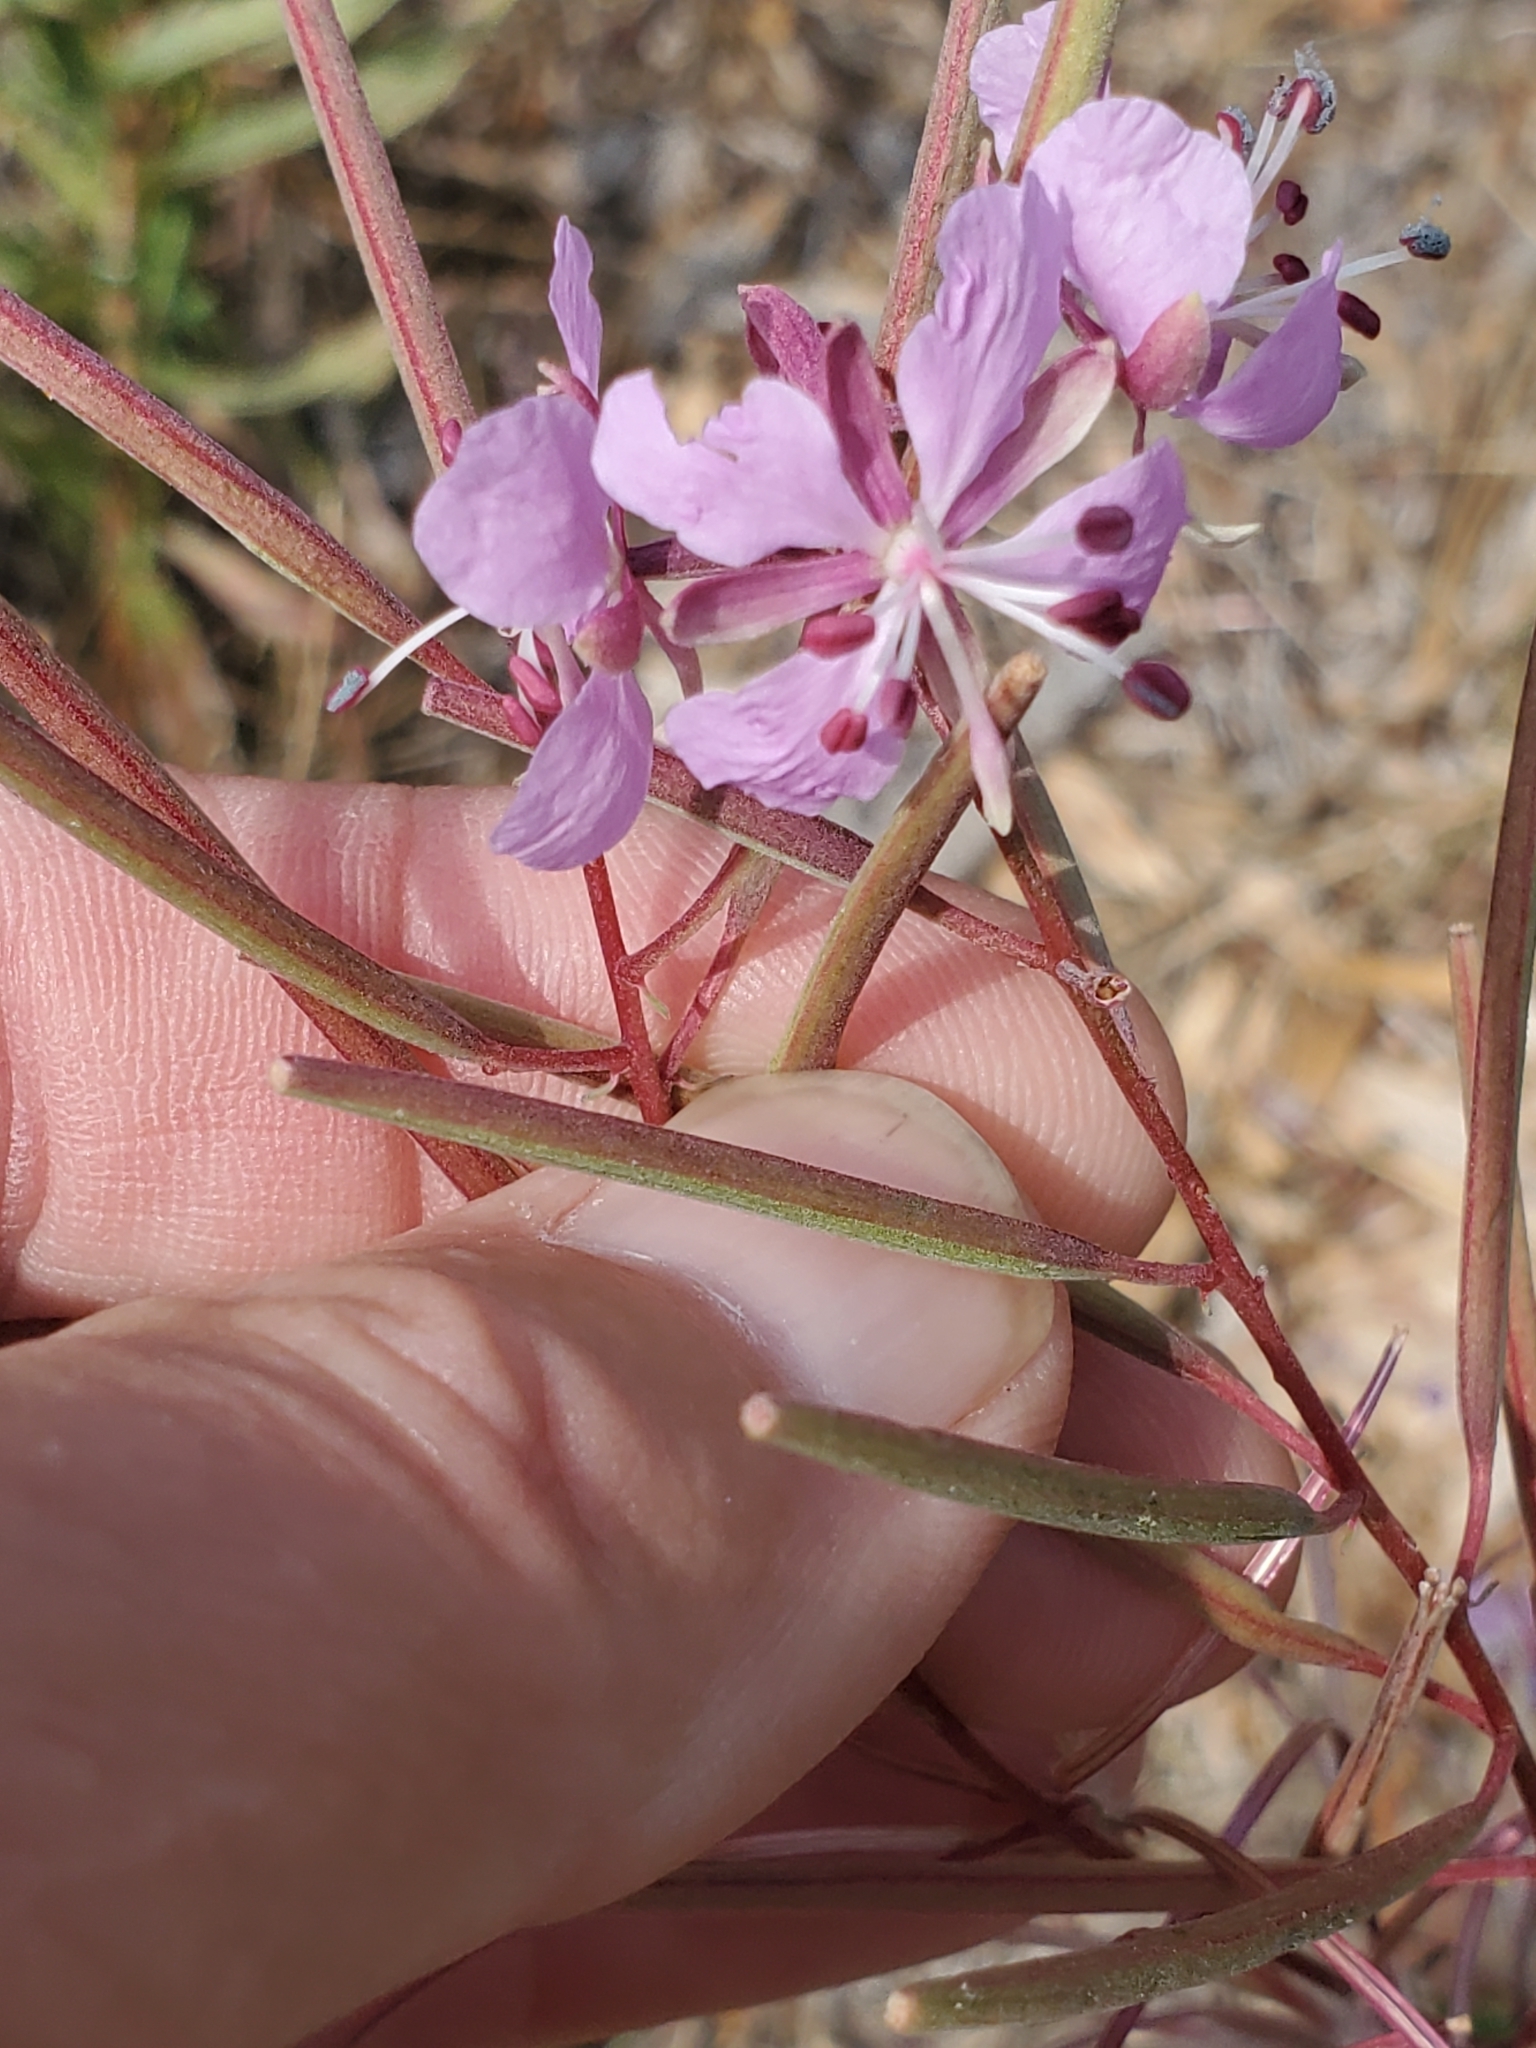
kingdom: Plantae
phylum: Tracheophyta
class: Magnoliopsida
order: Myrtales
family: Onagraceae
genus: Chamaenerion
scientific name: Chamaenerion angustifolium
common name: Fireweed
